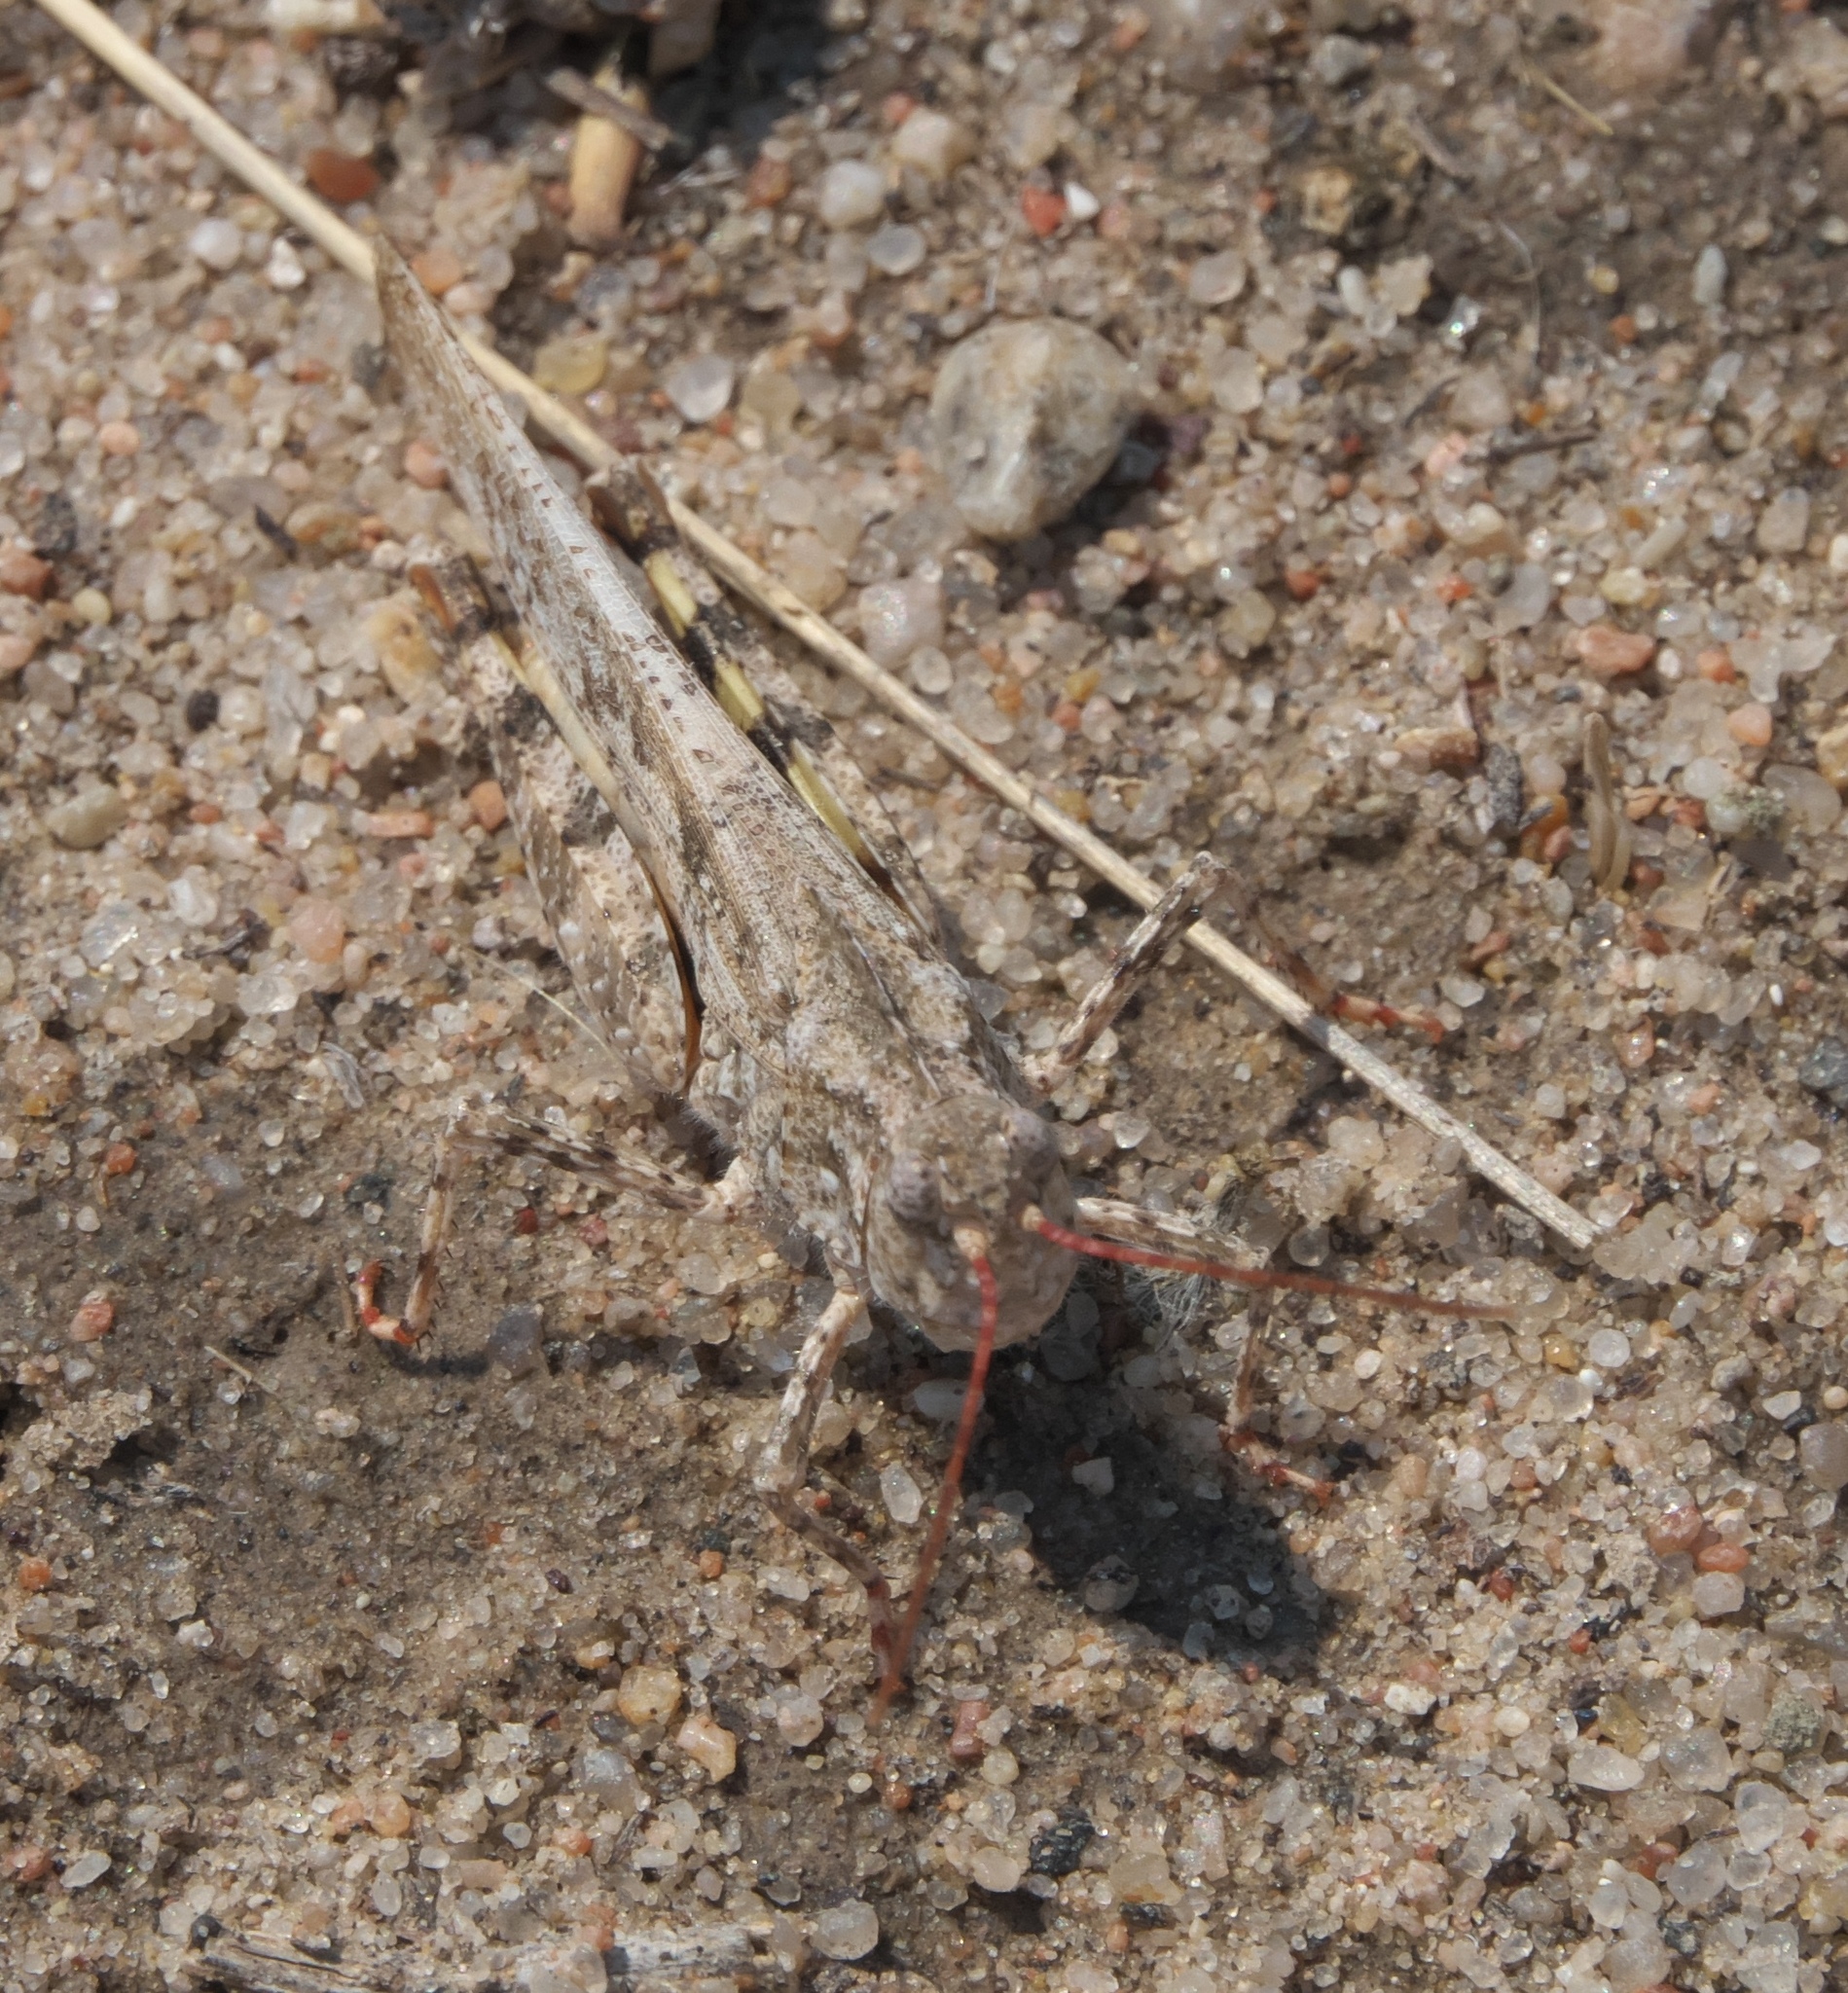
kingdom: Animalia
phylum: Arthropoda
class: Insecta
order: Orthoptera
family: Acrididae
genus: Spharagemon
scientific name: Spharagemon collare
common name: Mottled sand grasshopper
